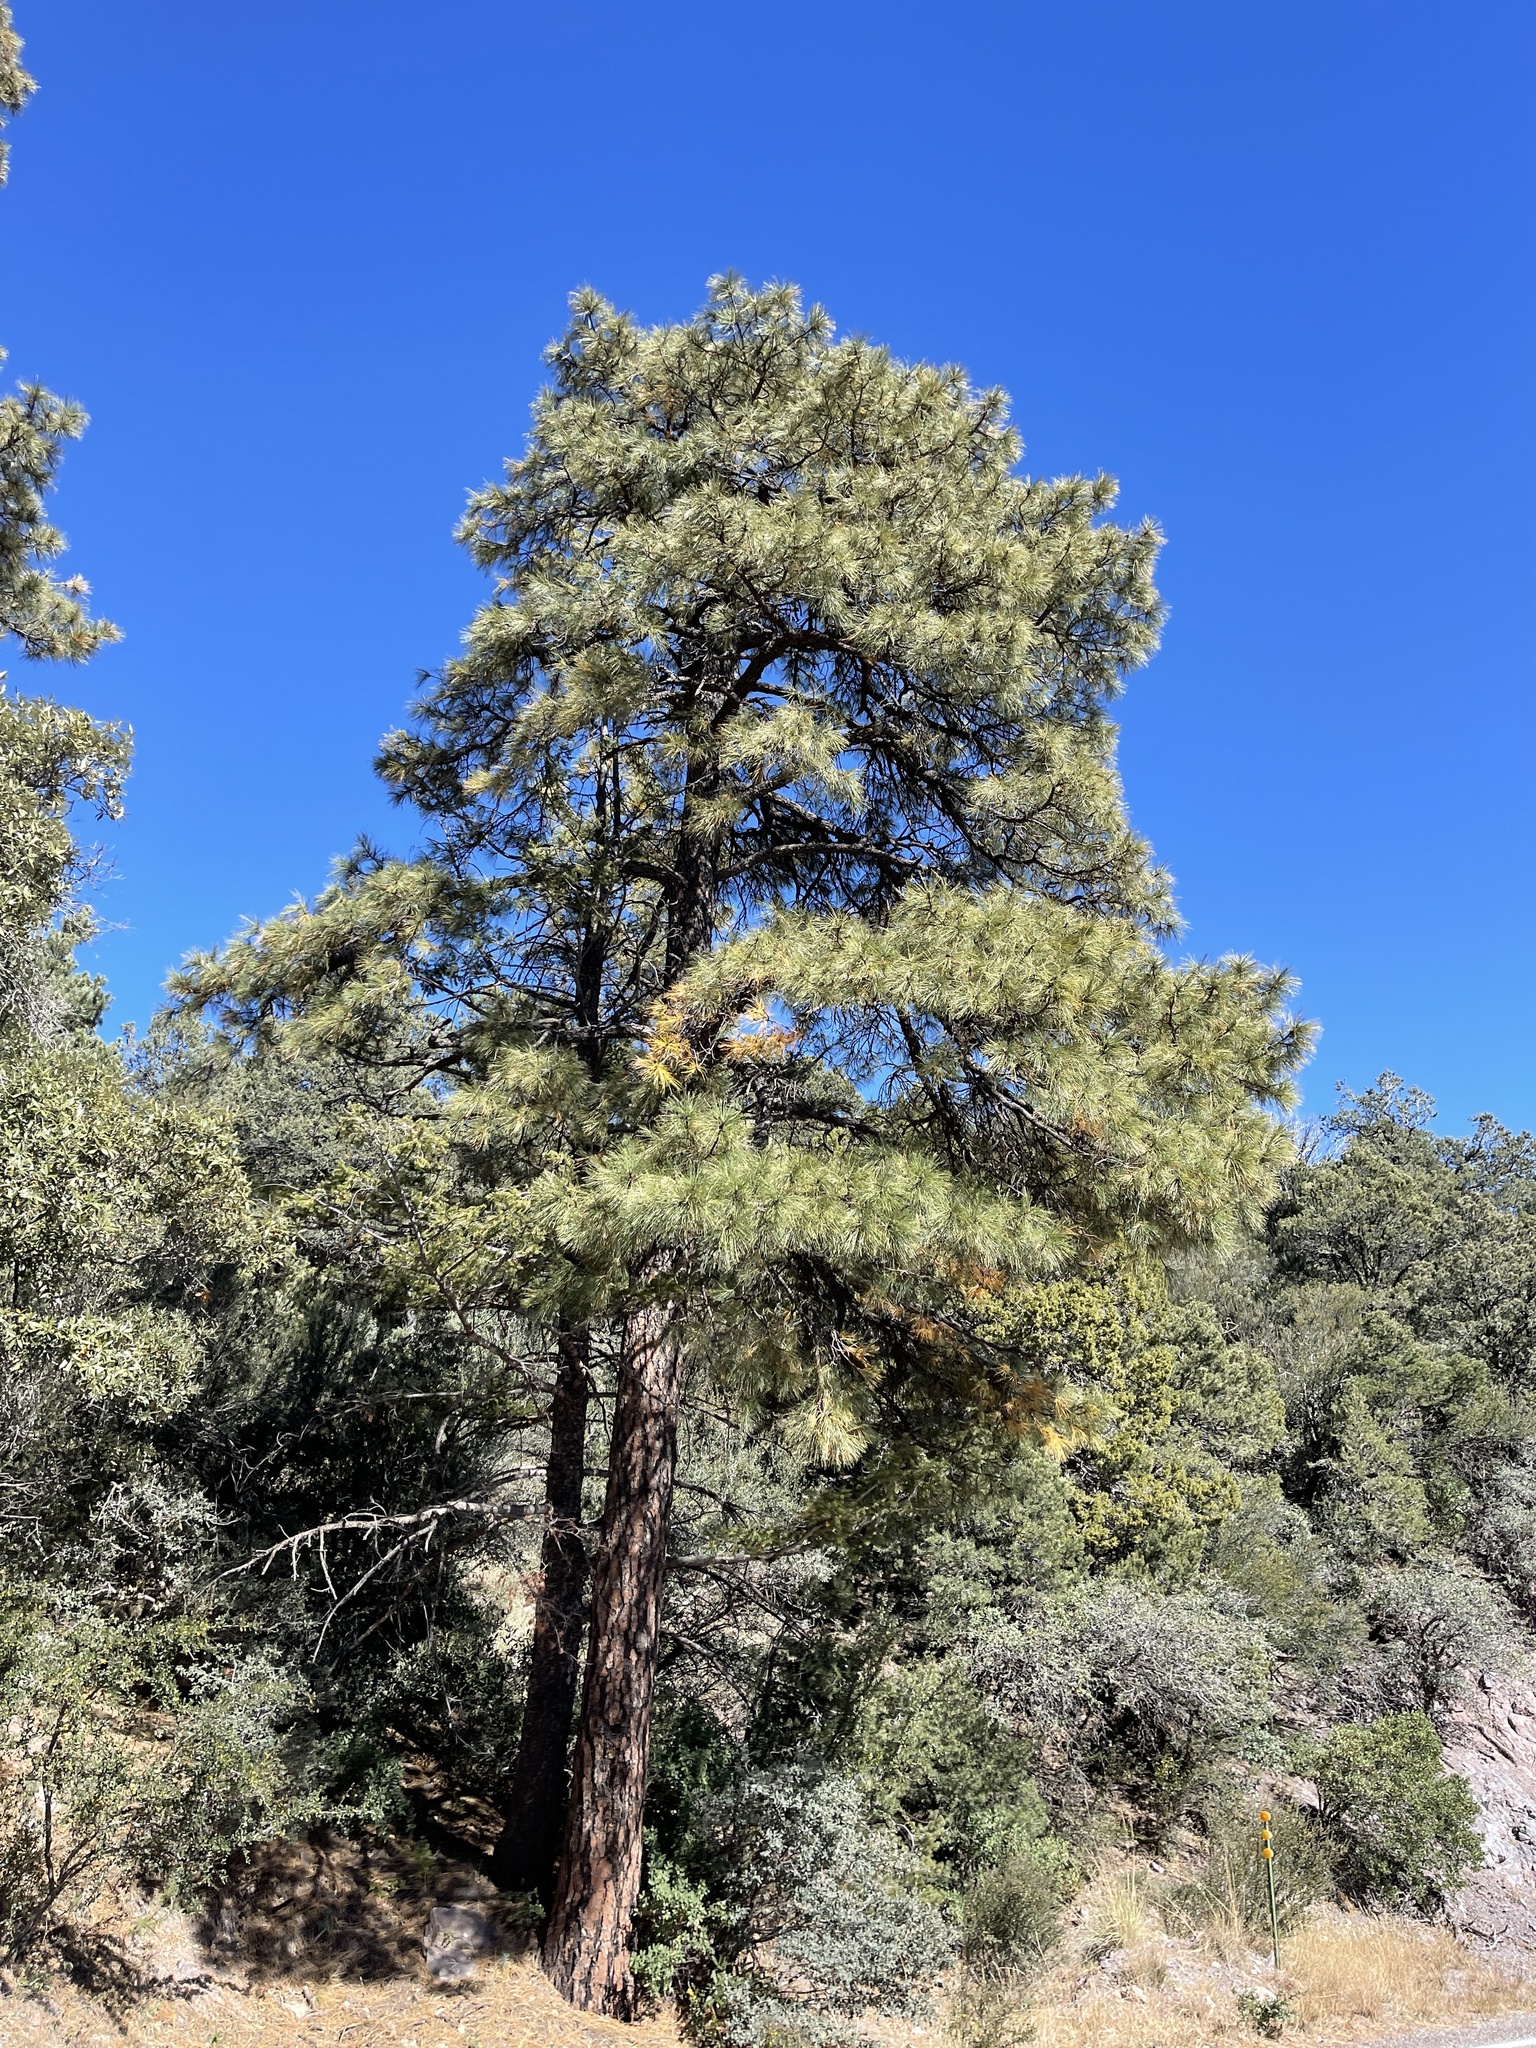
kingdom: Plantae
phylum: Tracheophyta
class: Pinopsida
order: Pinales
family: Pinaceae
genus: Pinus
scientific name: Pinus ponderosa
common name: Western yellow-pine
